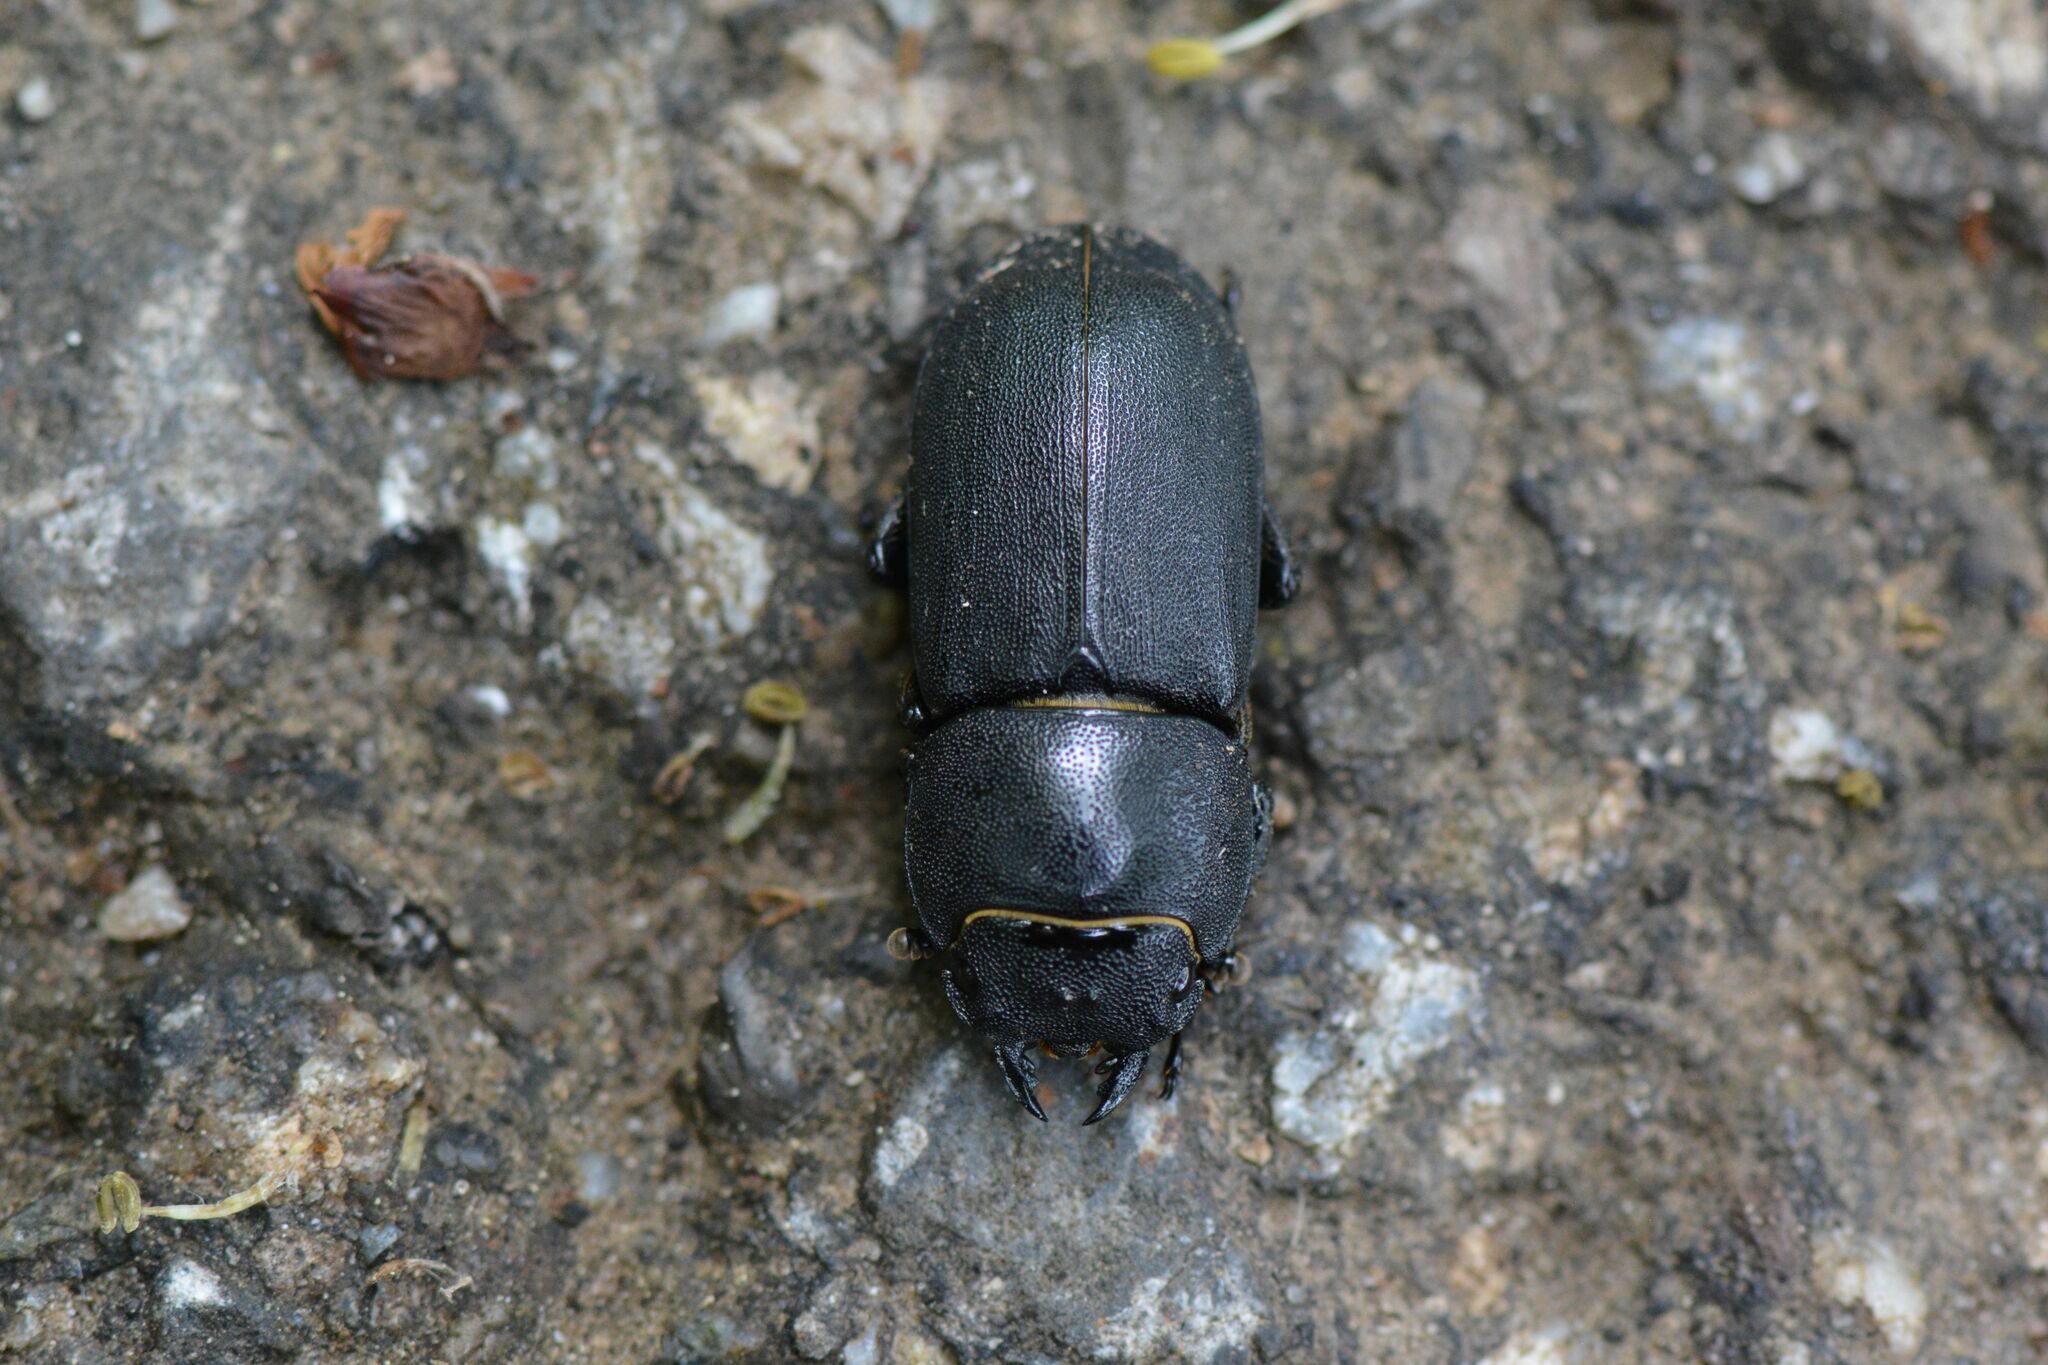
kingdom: Animalia
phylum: Arthropoda
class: Insecta
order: Coleoptera
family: Lucanidae
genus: Dorcus
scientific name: Dorcus parallelipipedus
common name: Lesser stag beetle
